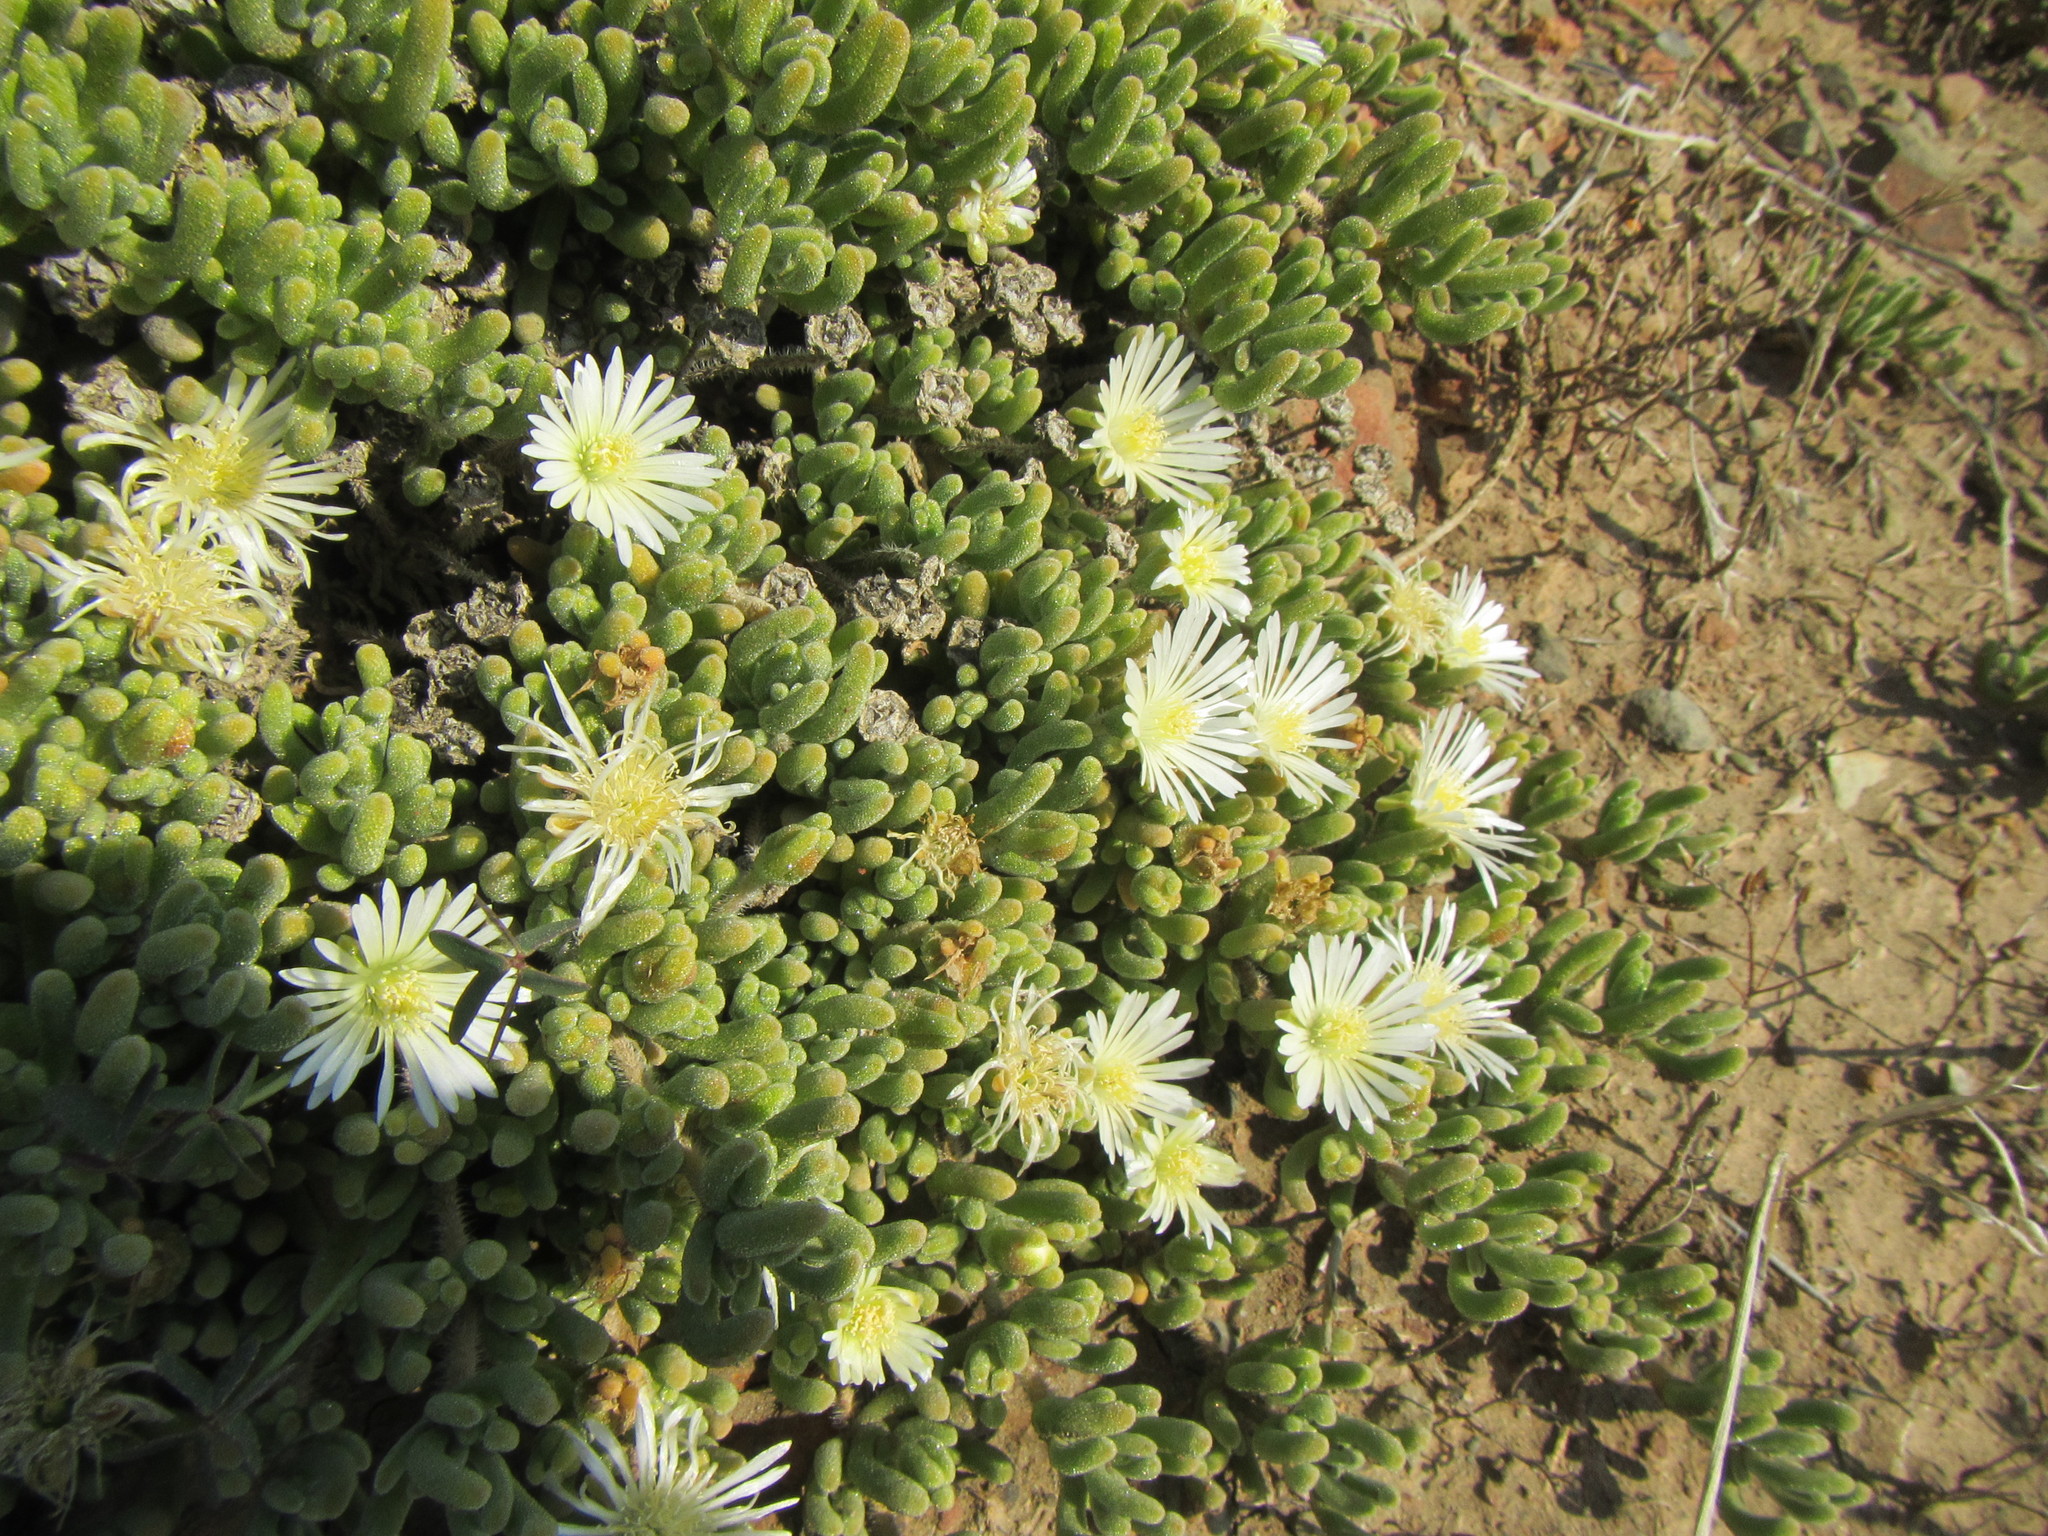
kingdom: Plantae
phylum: Tracheophyta
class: Magnoliopsida
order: Caryophyllales
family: Aizoaceae
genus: Drosanthemum
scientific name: Drosanthemum framesii
